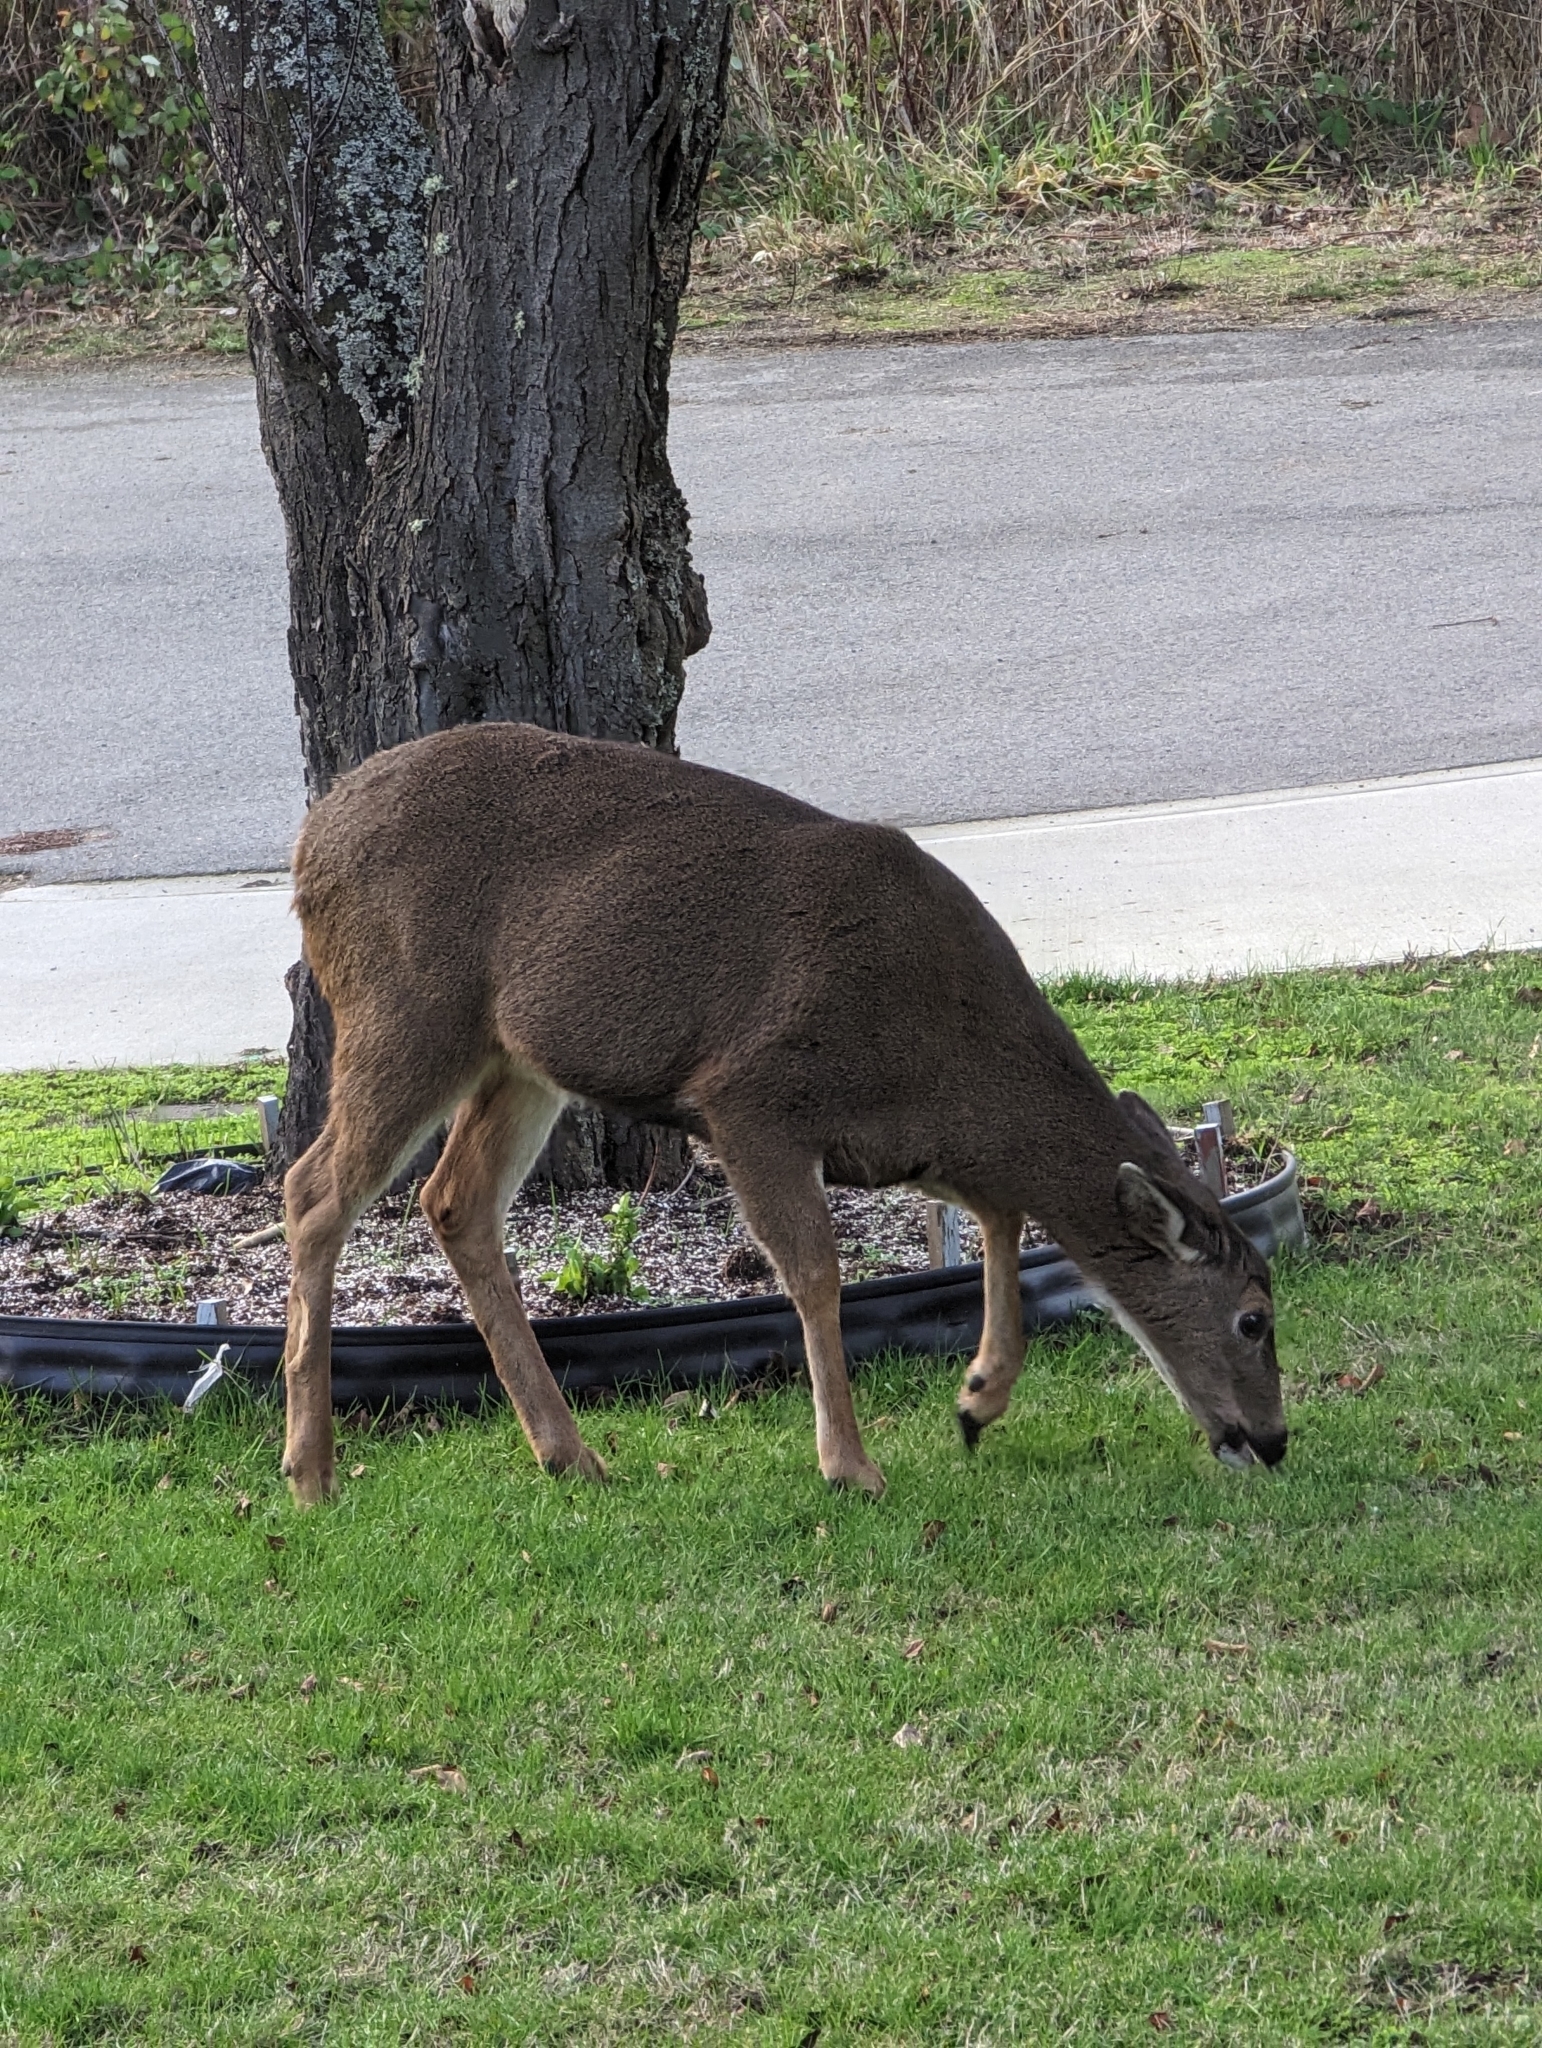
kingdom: Animalia
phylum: Chordata
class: Mammalia
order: Artiodactyla
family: Cervidae
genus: Odocoileus
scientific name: Odocoileus hemionus
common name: Mule deer
